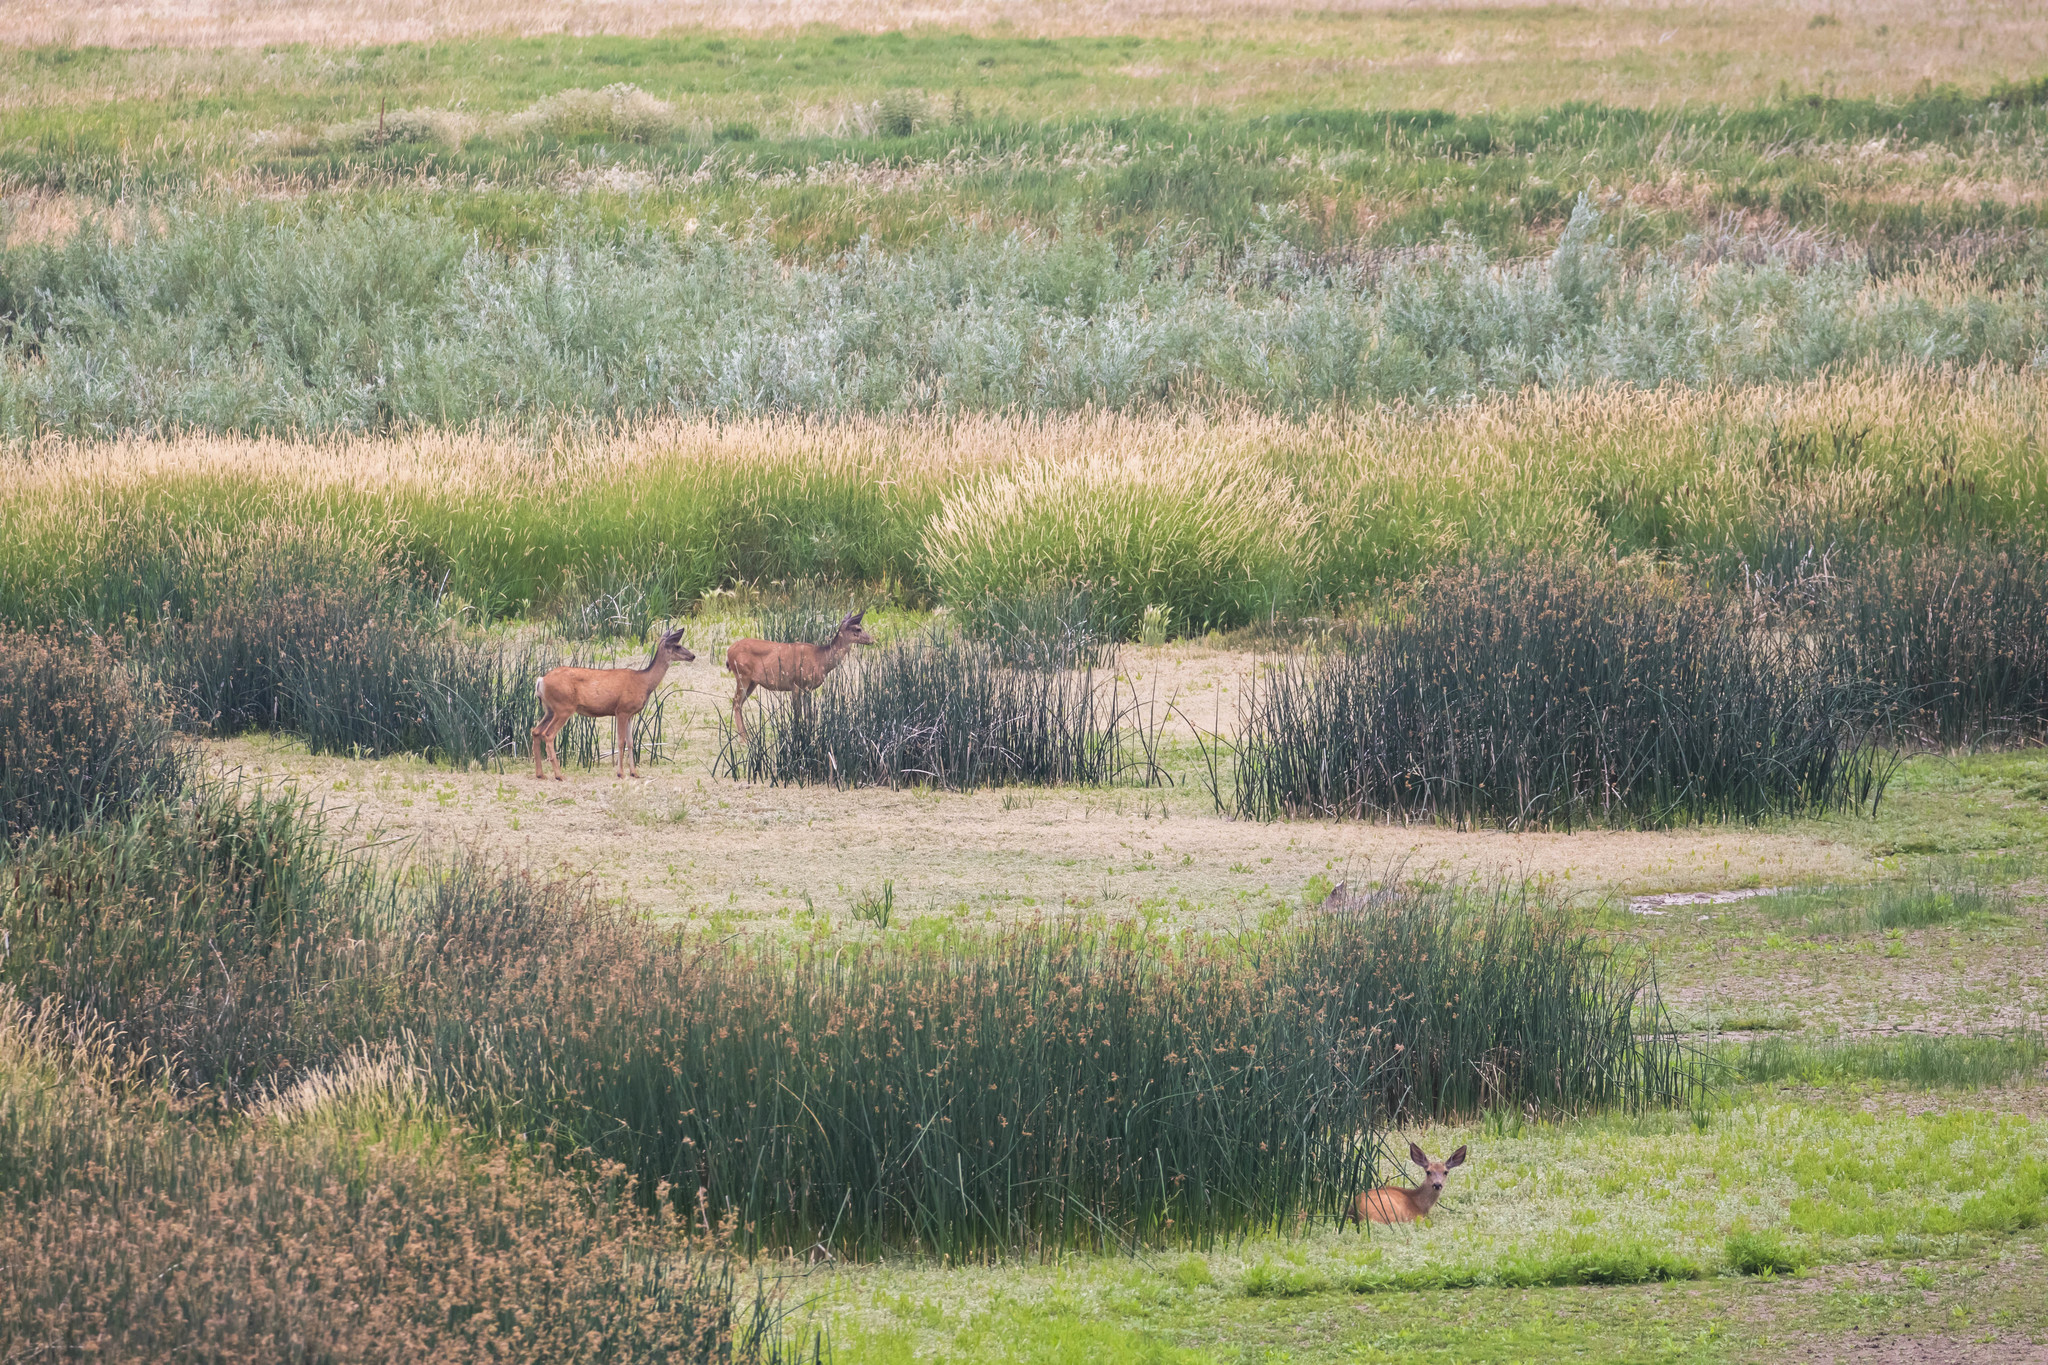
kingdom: Animalia
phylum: Chordata
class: Mammalia
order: Artiodactyla
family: Cervidae
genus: Odocoileus
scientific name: Odocoileus hemionus
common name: Mule deer
